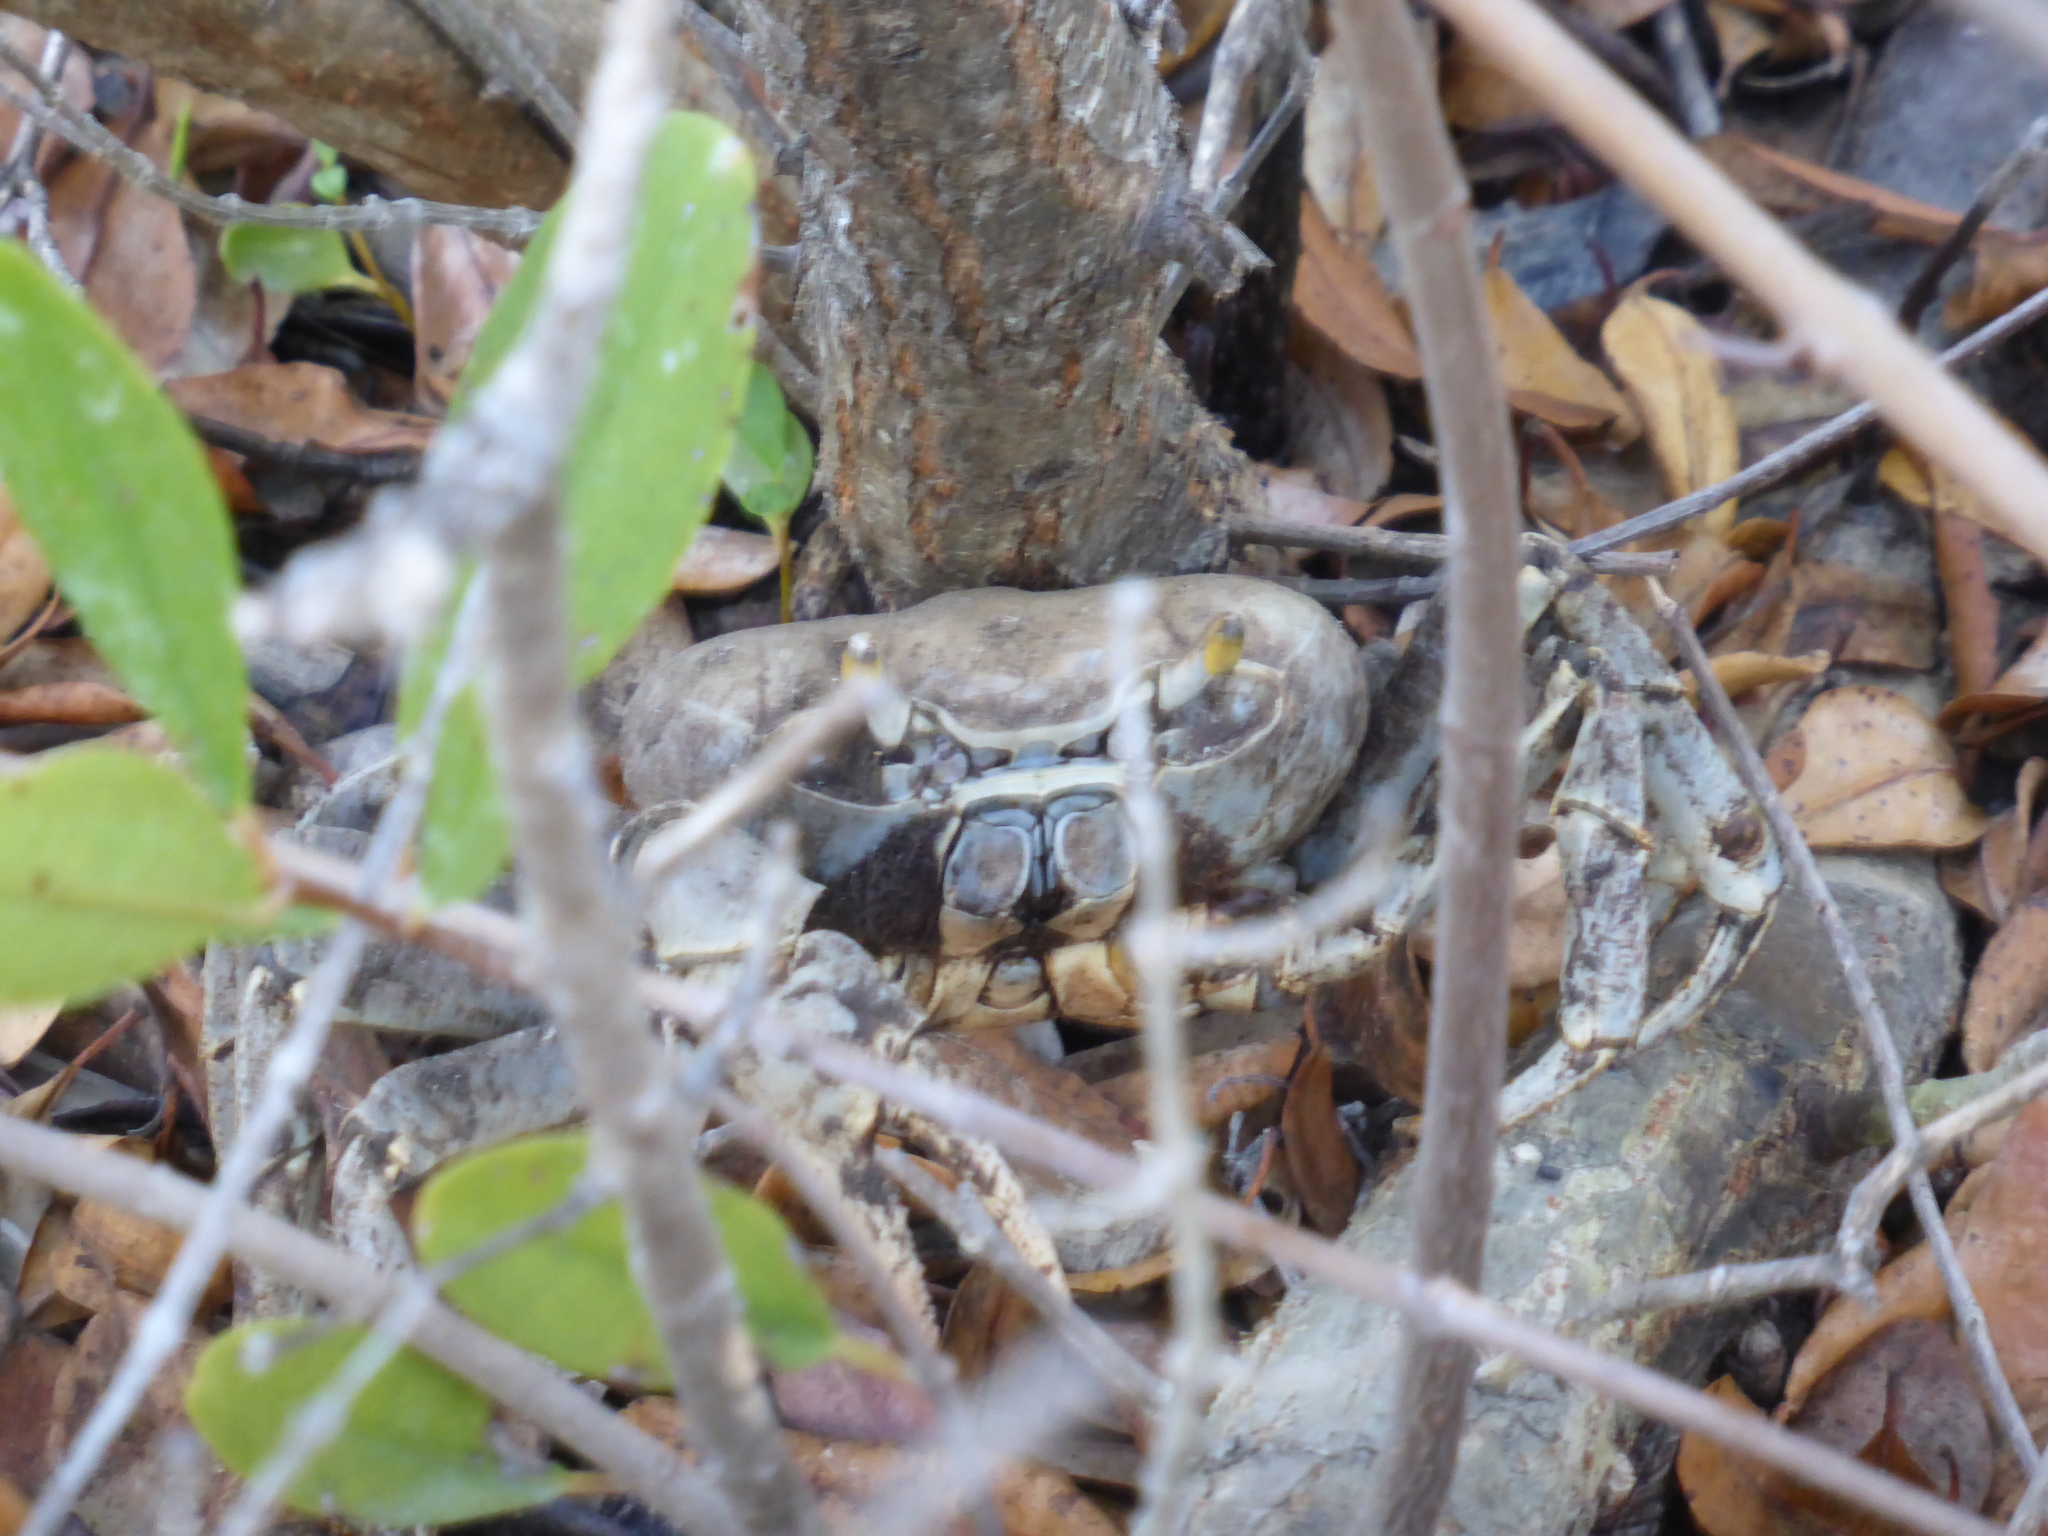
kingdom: Animalia
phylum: Arthropoda
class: Malacostraca
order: Decapoda
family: Gecarcinidae
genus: Cardisoma
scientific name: Cardisoma guanhumi
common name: Great land crab
